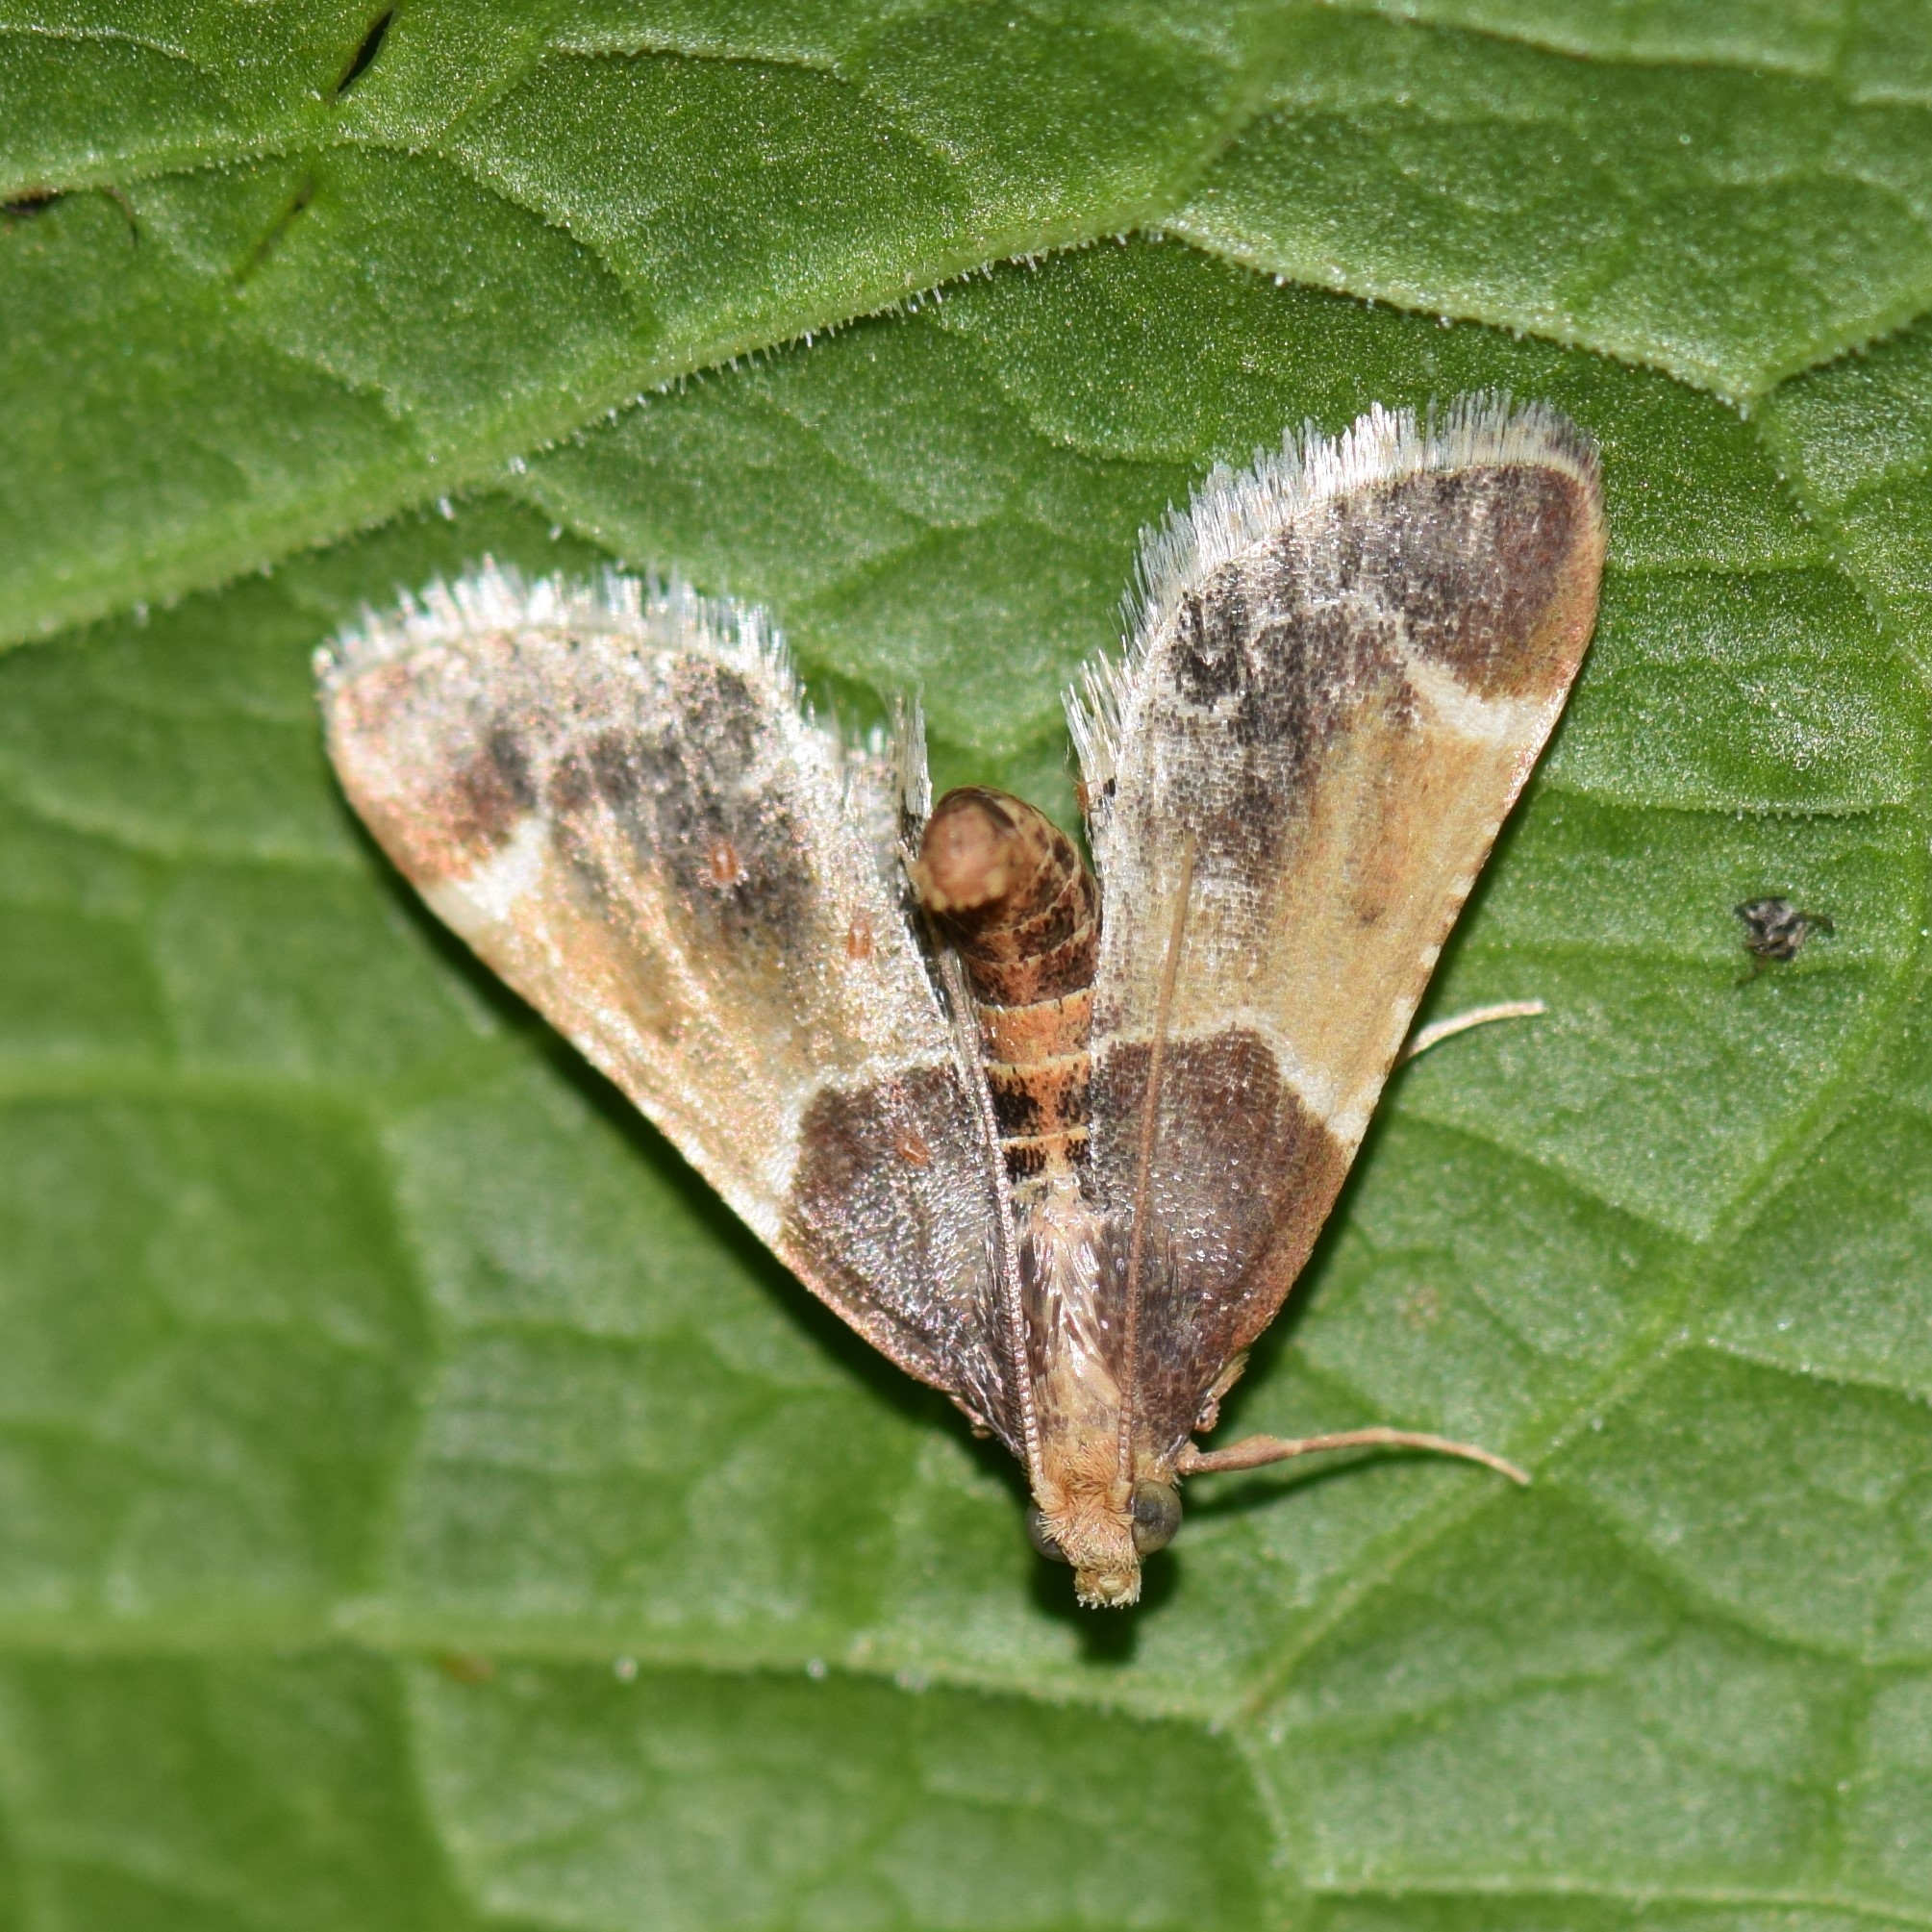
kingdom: Animalia
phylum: Arthropoda
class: Insecta
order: Lepidoptera
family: Pyralidae
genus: Pyralis
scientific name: Pyralis farinalis
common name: Meal moth
